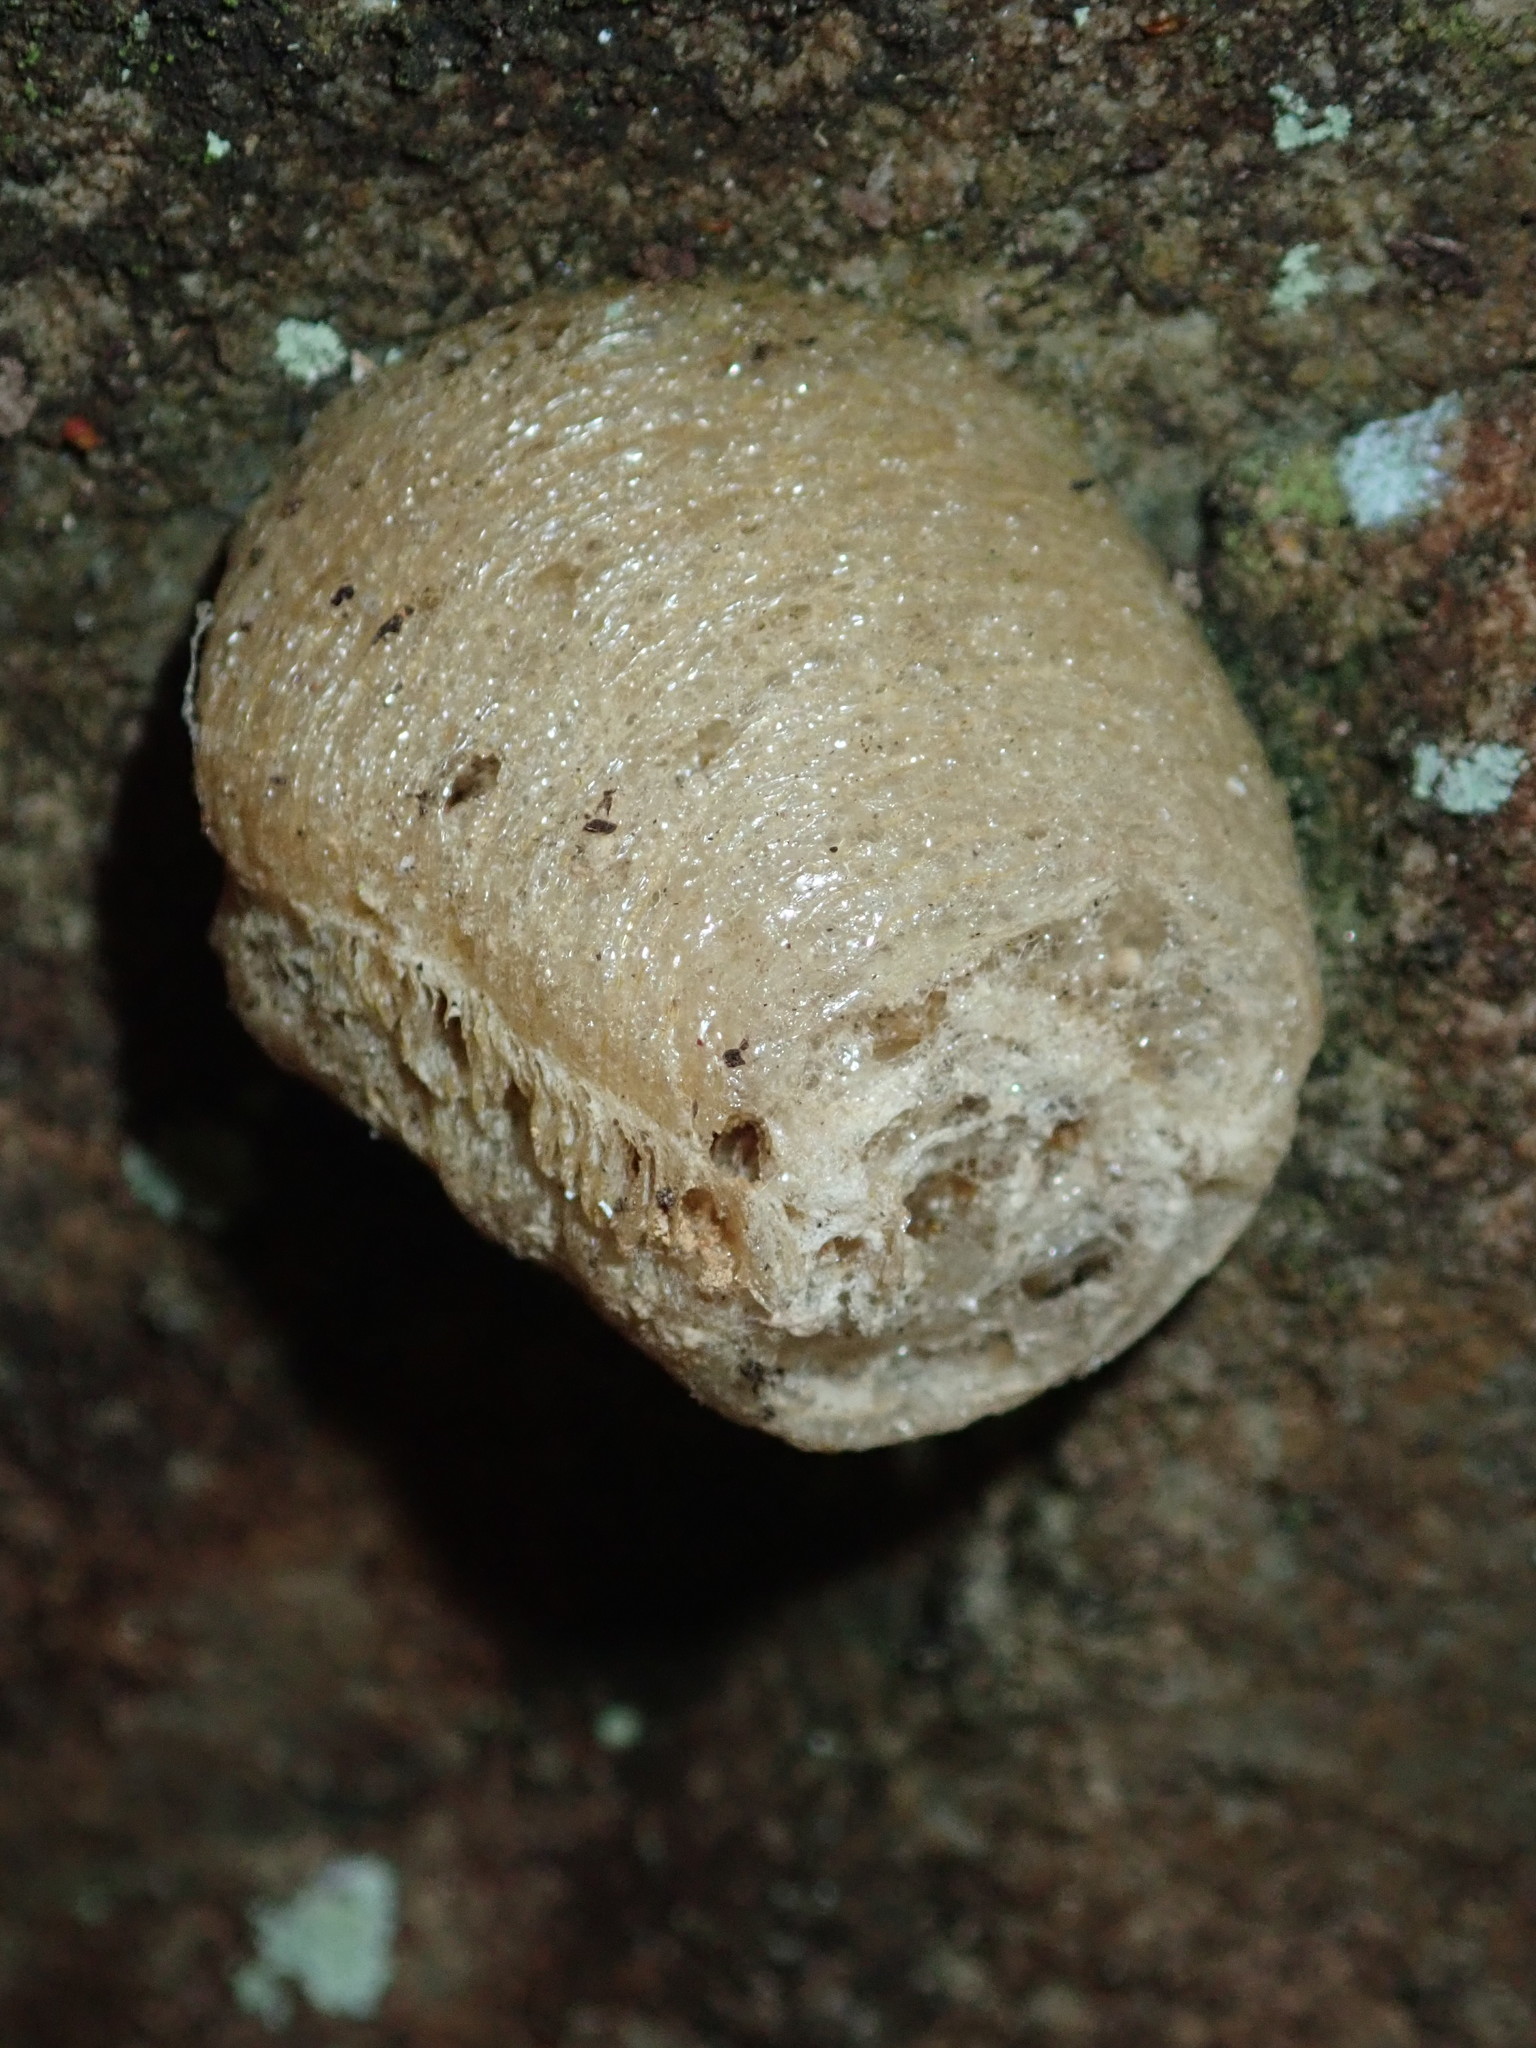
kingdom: Animalia
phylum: Arthropoda
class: Insecta
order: Mantodea
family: Mantidae
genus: Archimantis
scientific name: Archimantis latistyla
